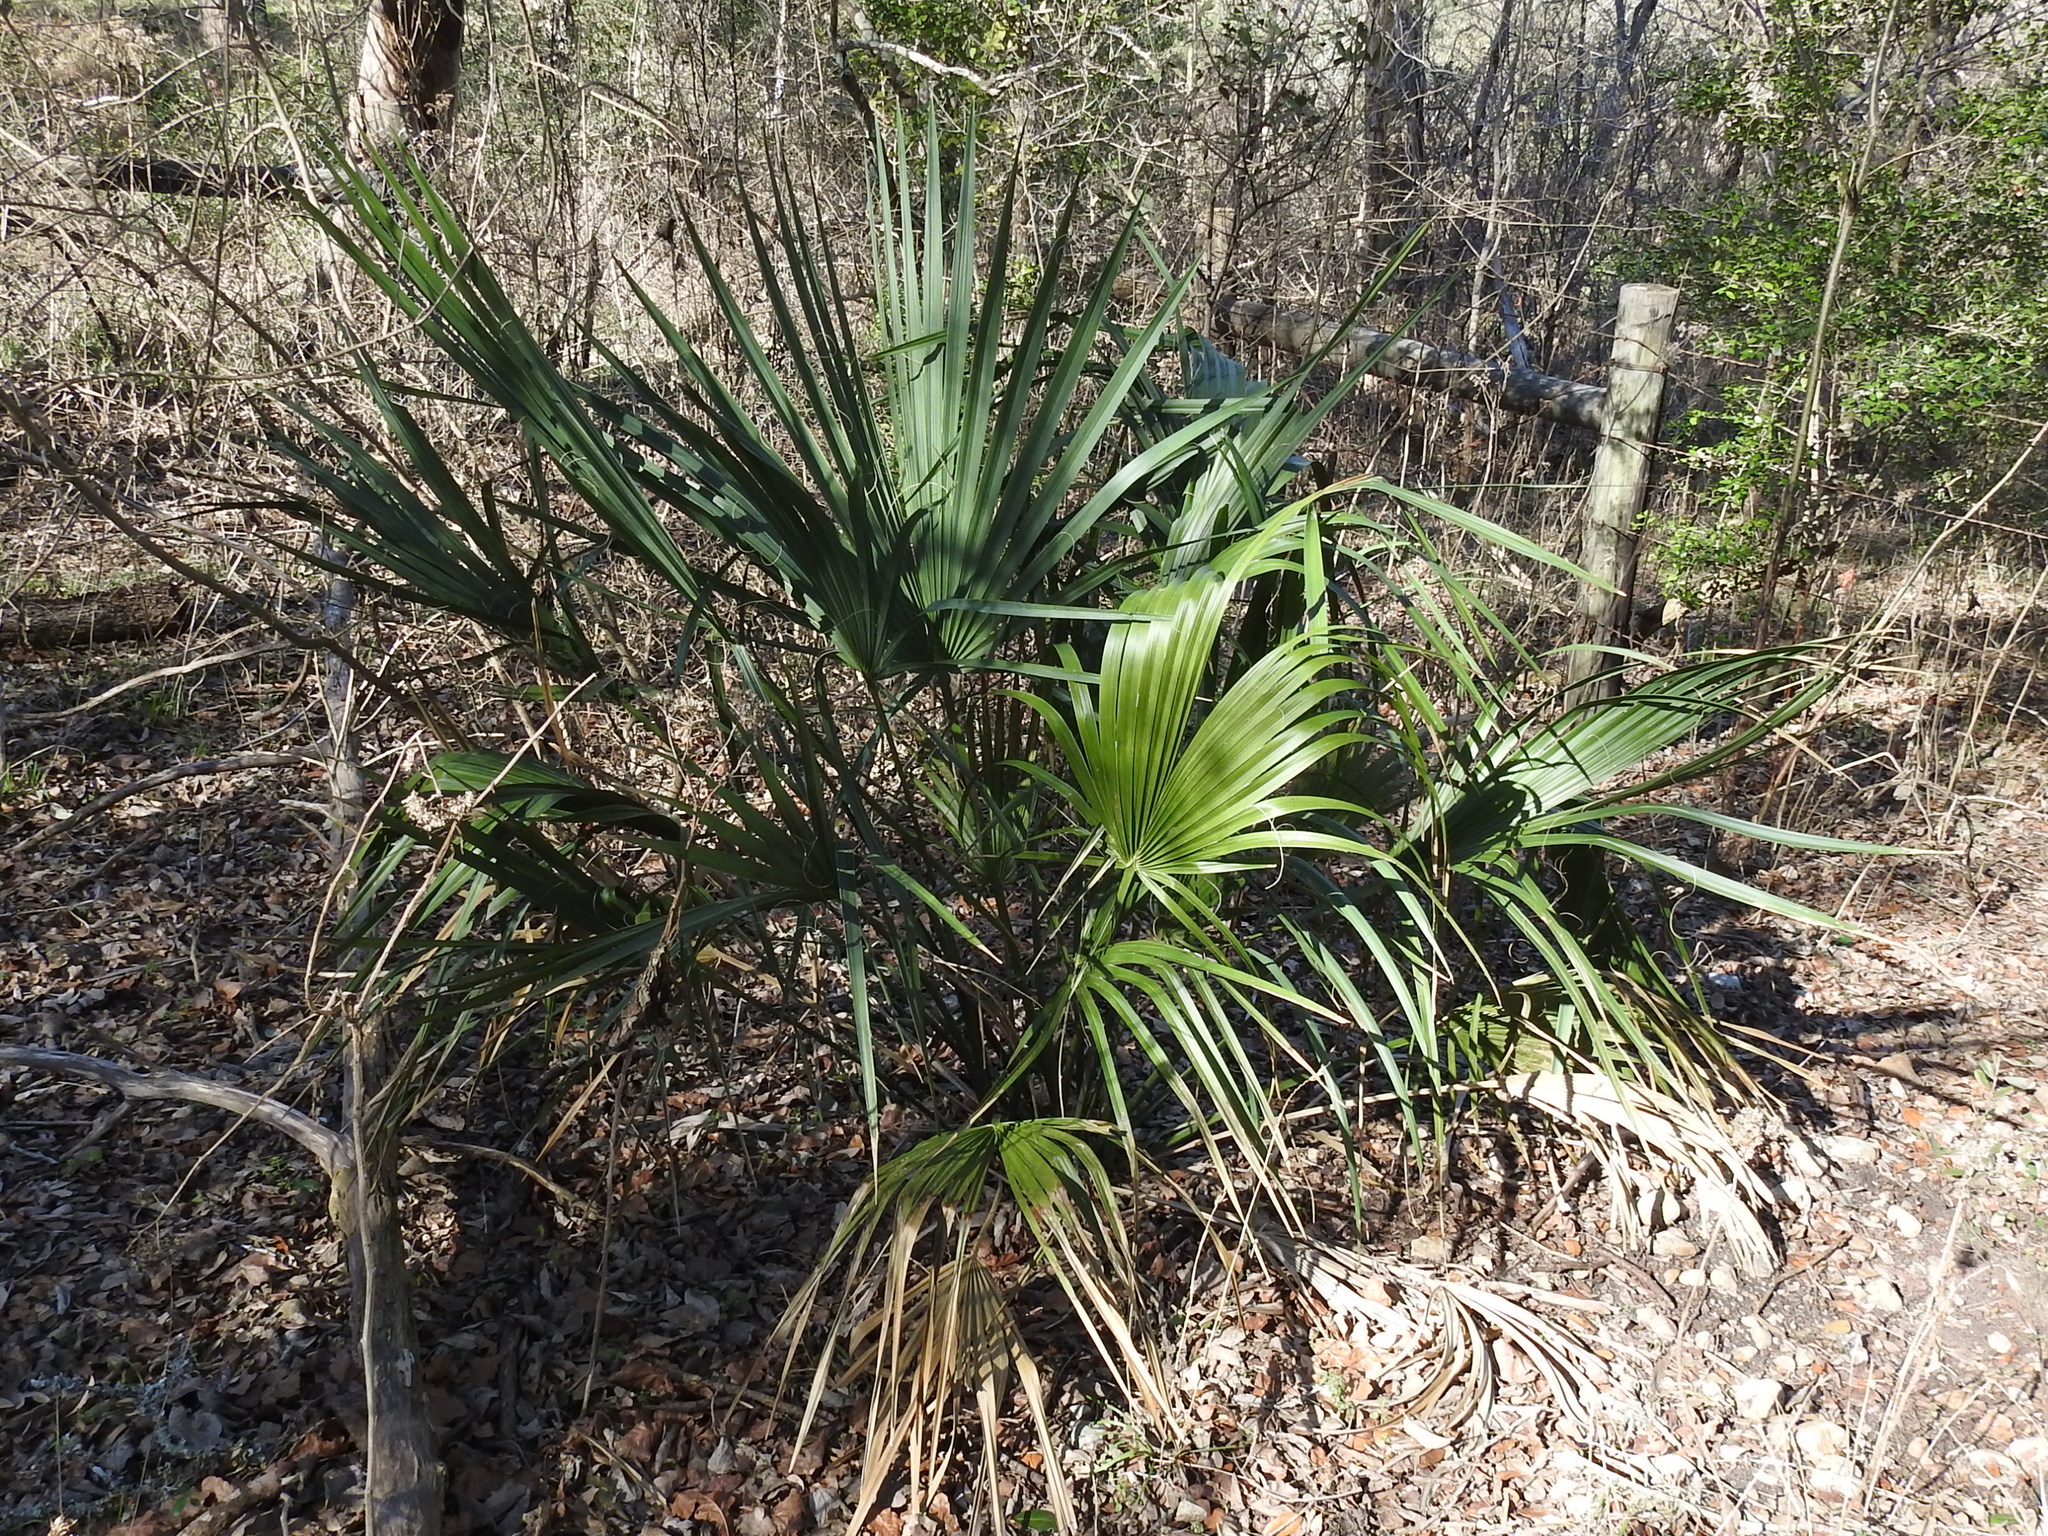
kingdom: Plantae
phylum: Tracheophyta
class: Liliopsida
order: Arecales
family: Arecaceae
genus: Sabal
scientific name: Sabal minor
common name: Dwarf palmetto
